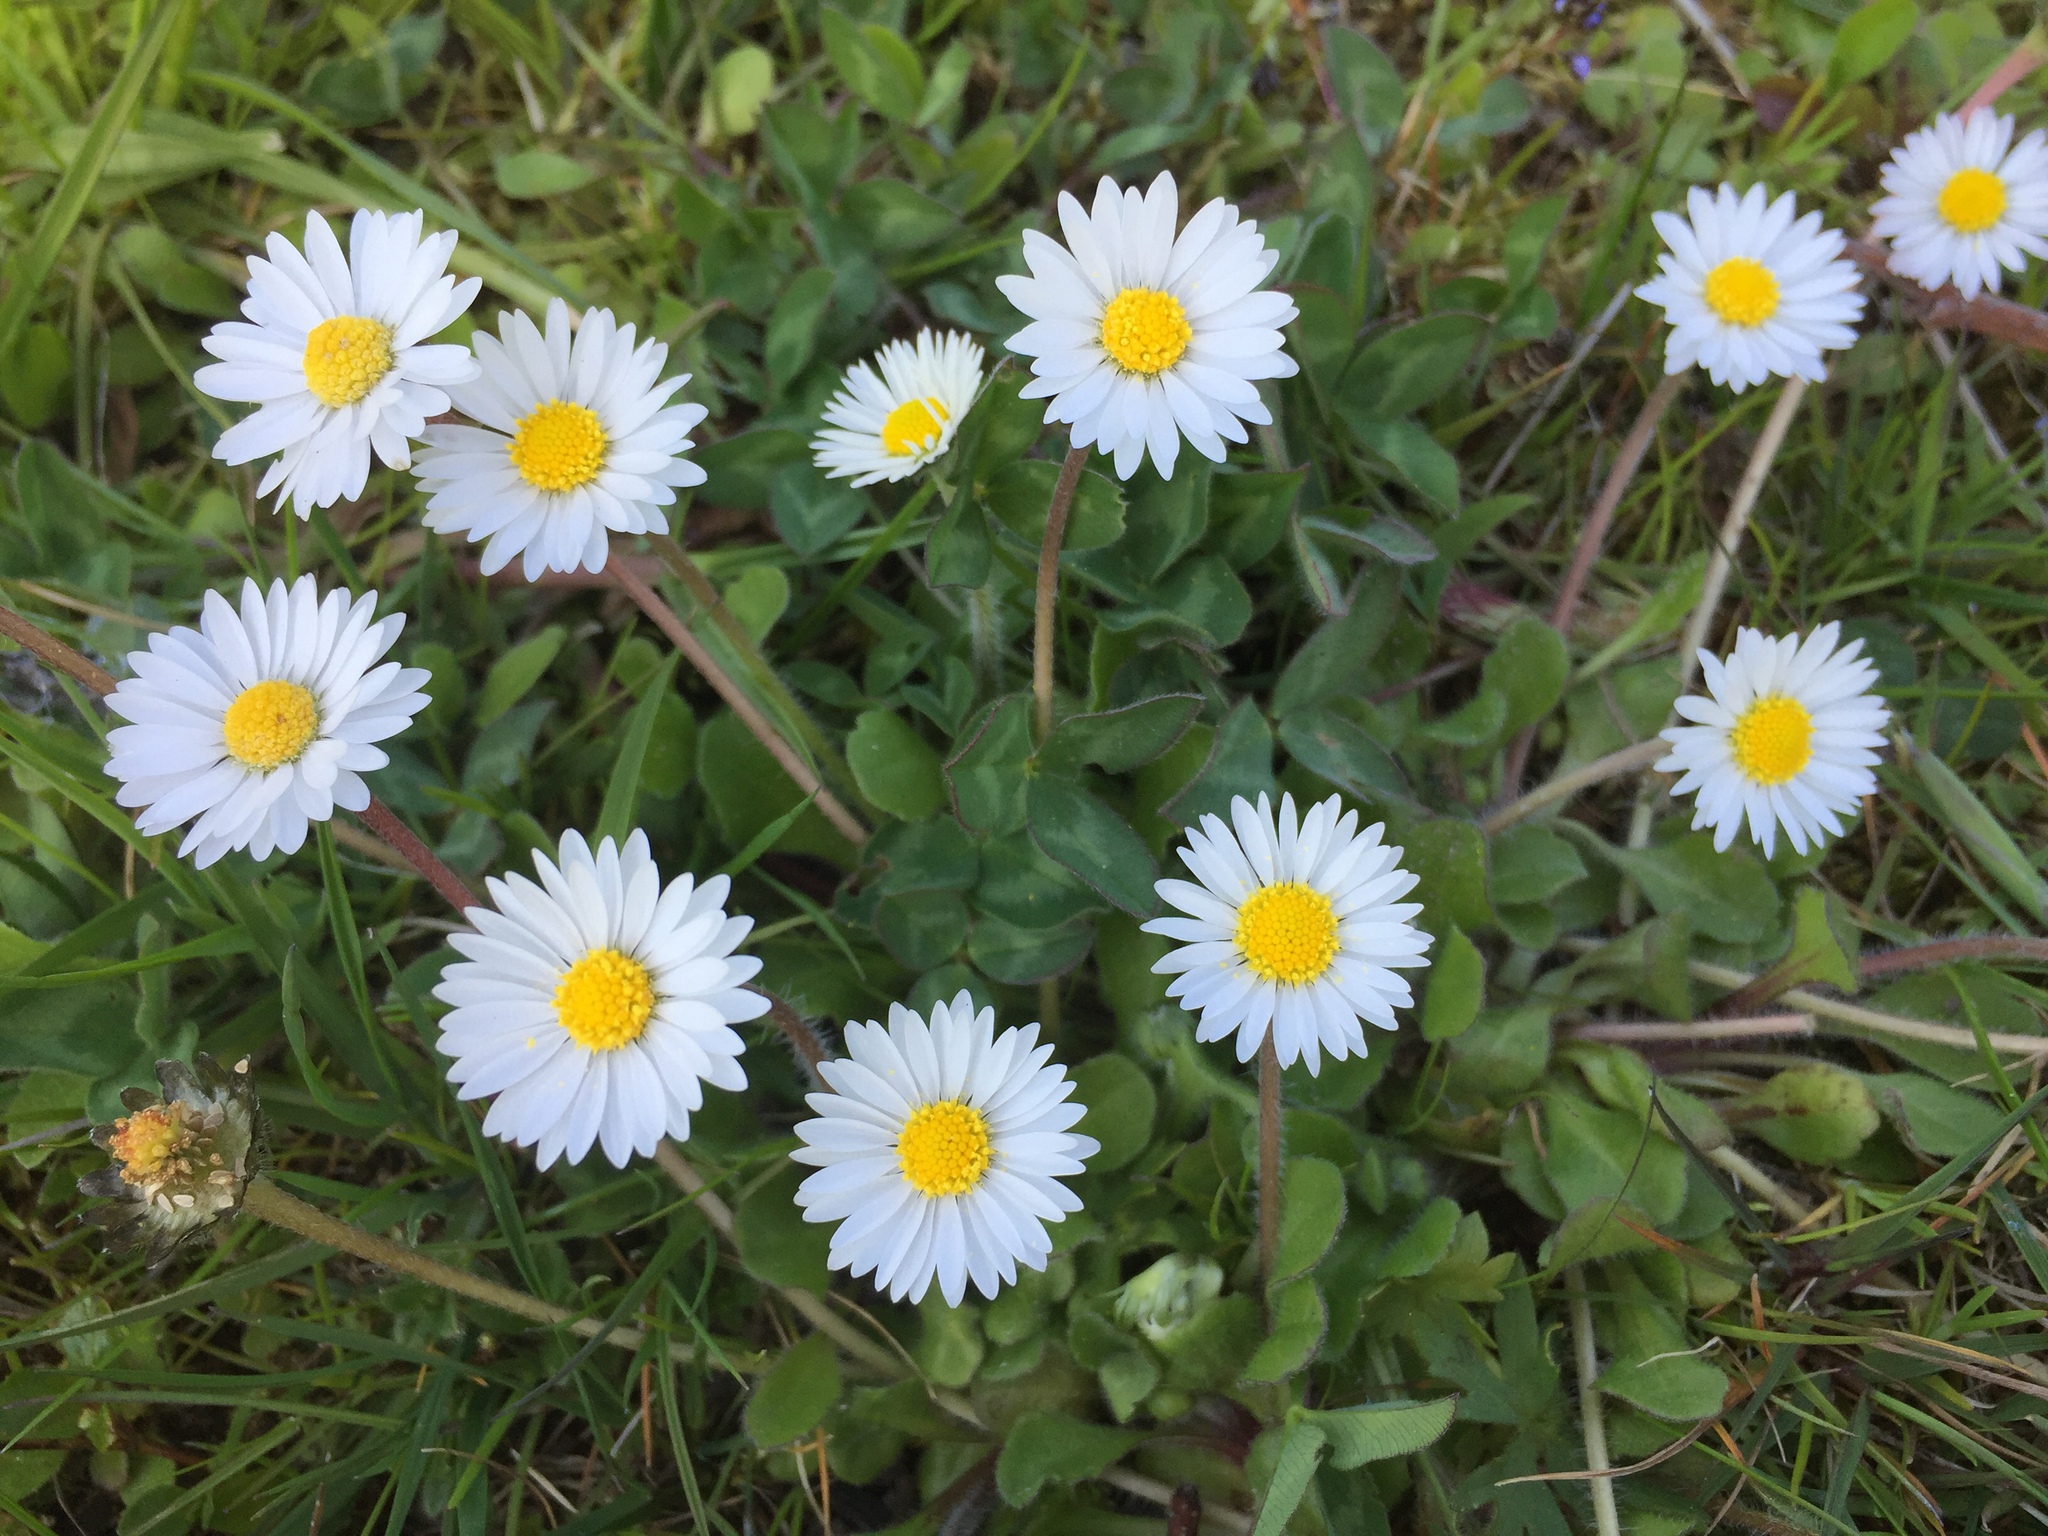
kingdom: Plantae
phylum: Tracheophyta
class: Magnoliopsida
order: Asterales
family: Asteraceae
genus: Bellis
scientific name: Bellis perennis
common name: Lawndaisy
